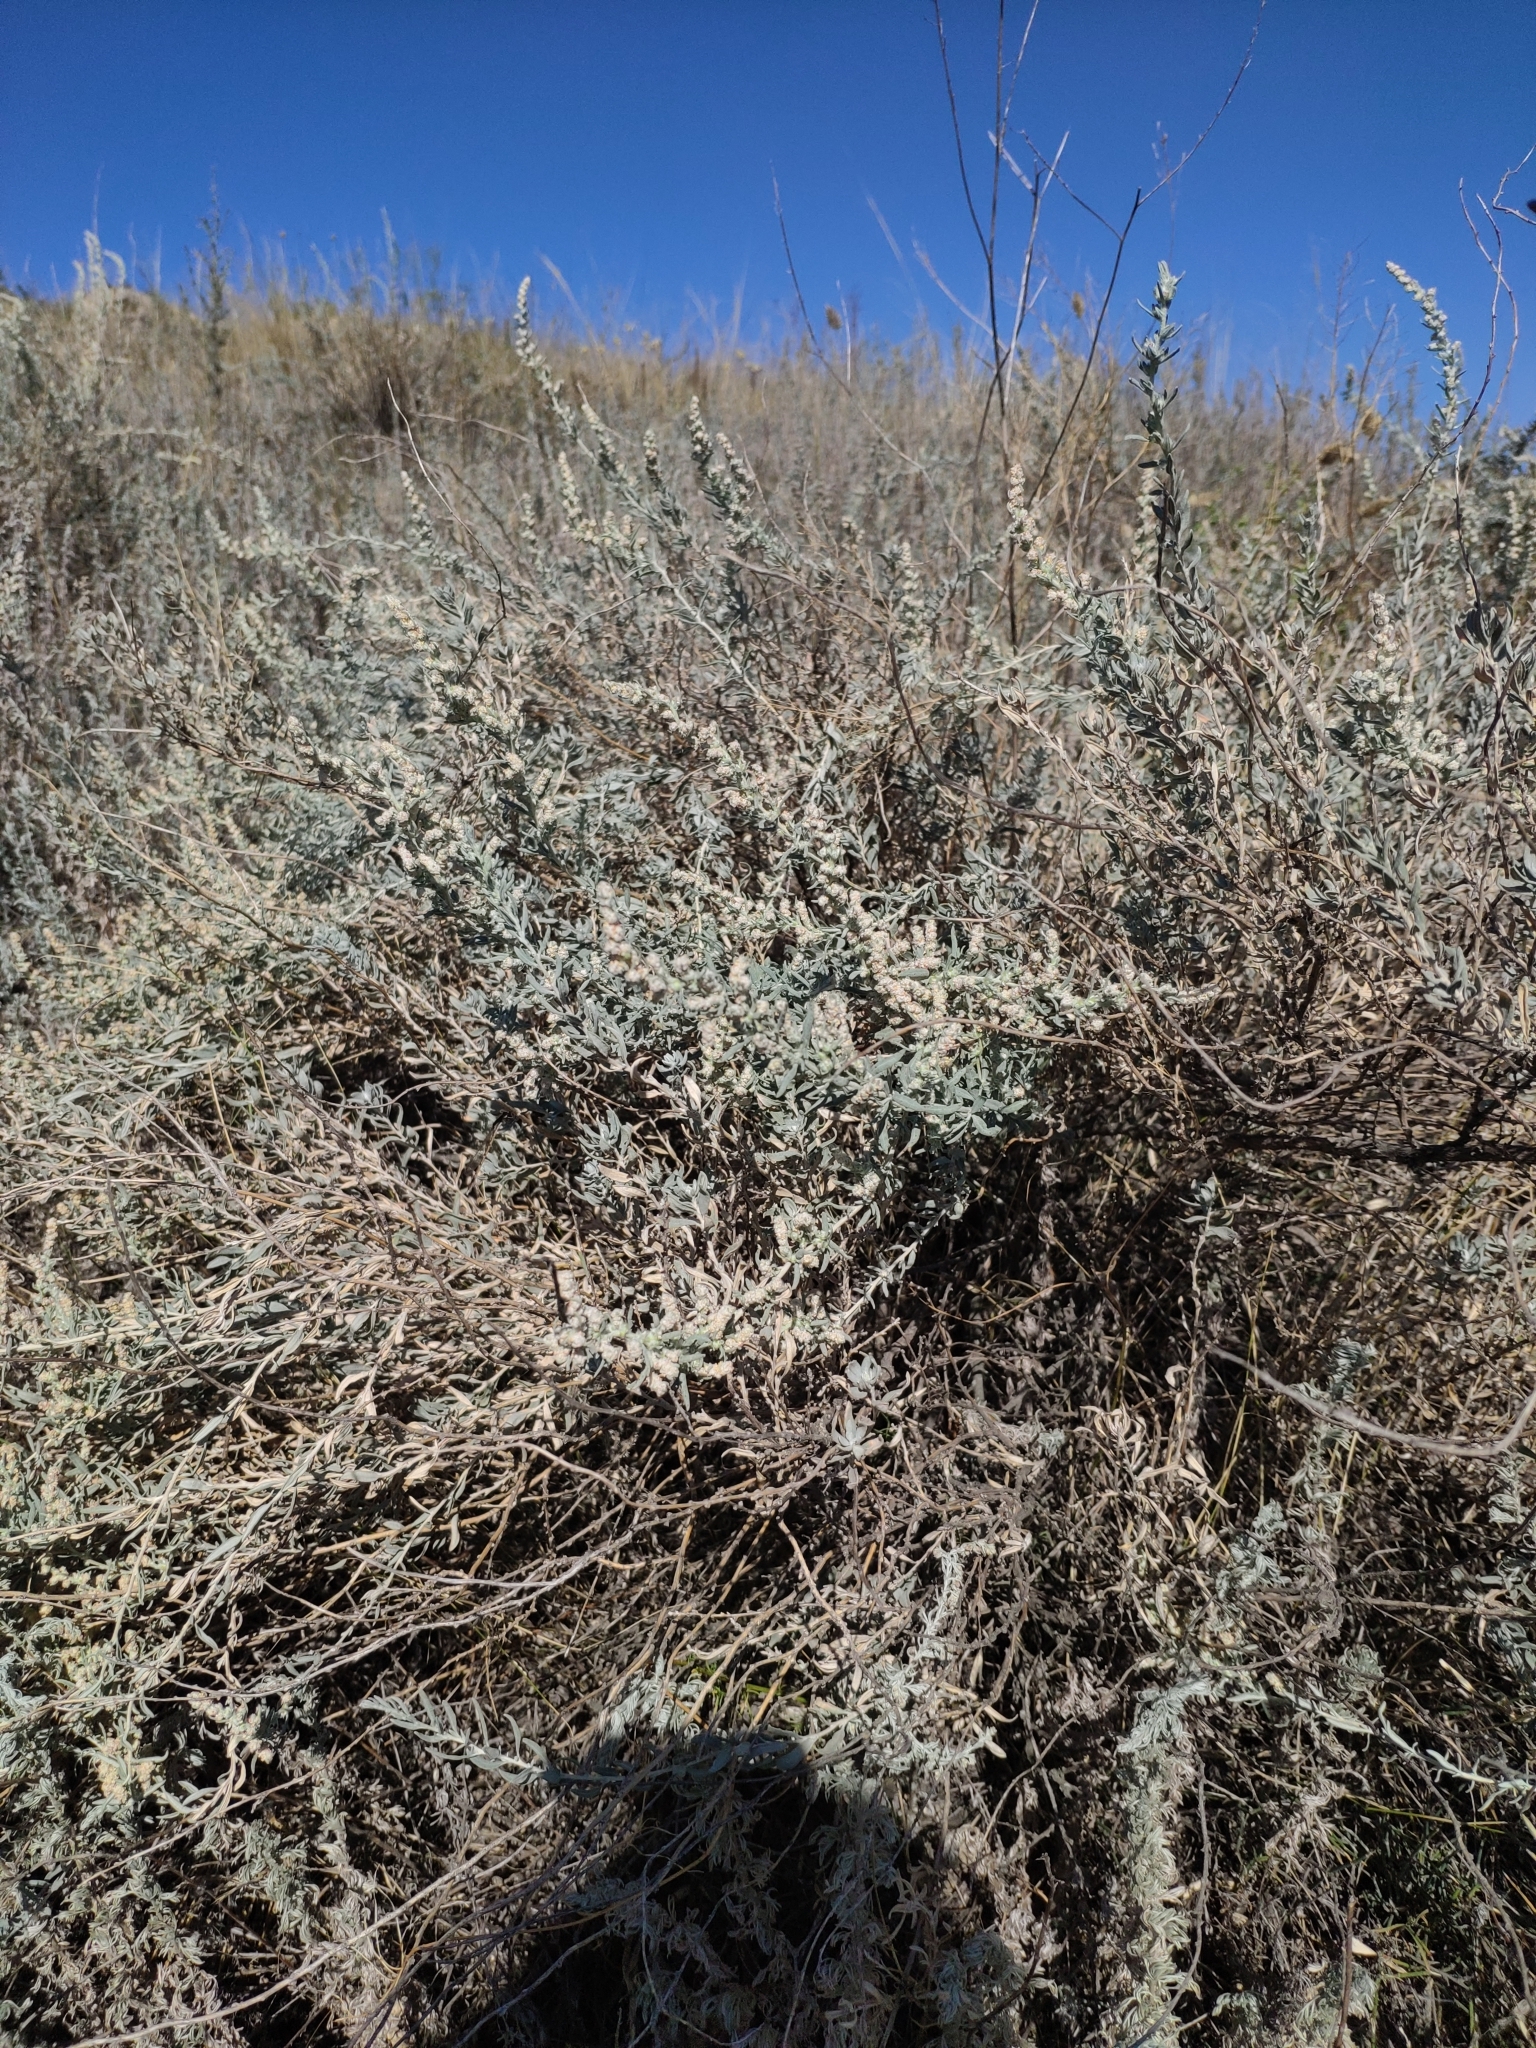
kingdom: Plantae
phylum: Tracheophyta
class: Magnoliopsida
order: Caryophyllales
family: Amaranthaceae
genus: Krascheninnikovia
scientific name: Krascheninnikovia ceratoides
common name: Pamirian winterfat
